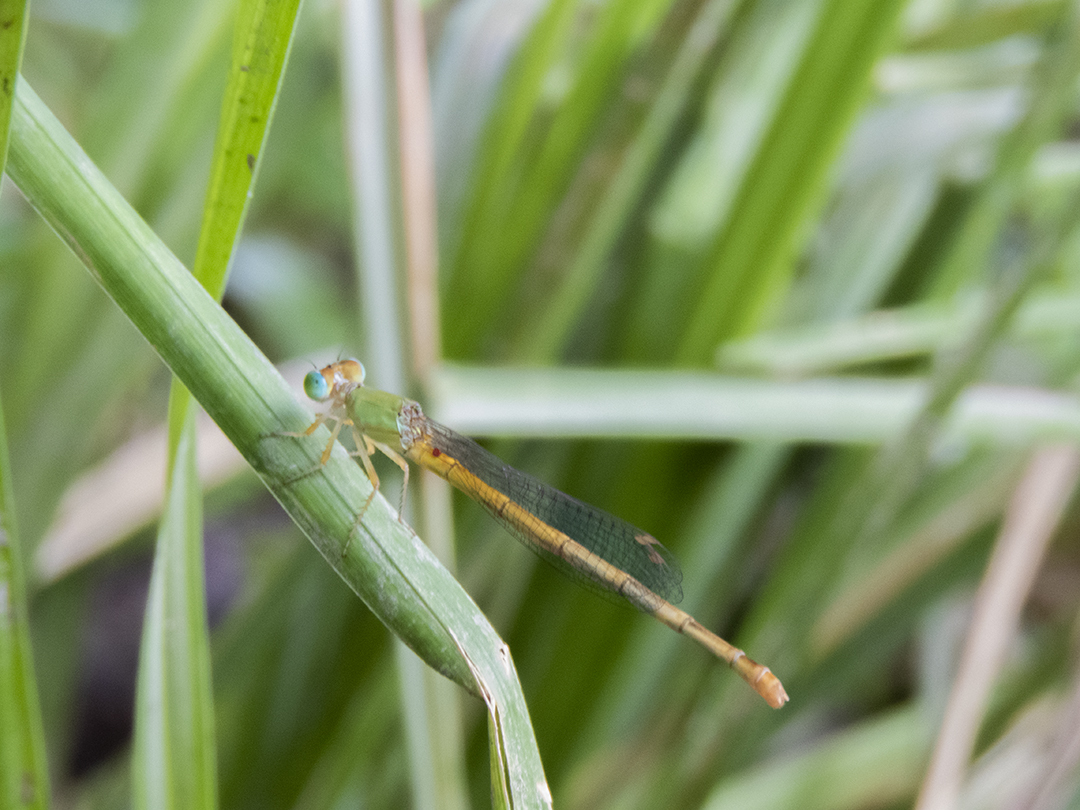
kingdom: Animalia
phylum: Arthropoda
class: Insecta
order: Odonata
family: Coenagrionidae
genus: Ceriagrion
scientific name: Ceriagrion coromandelianum
